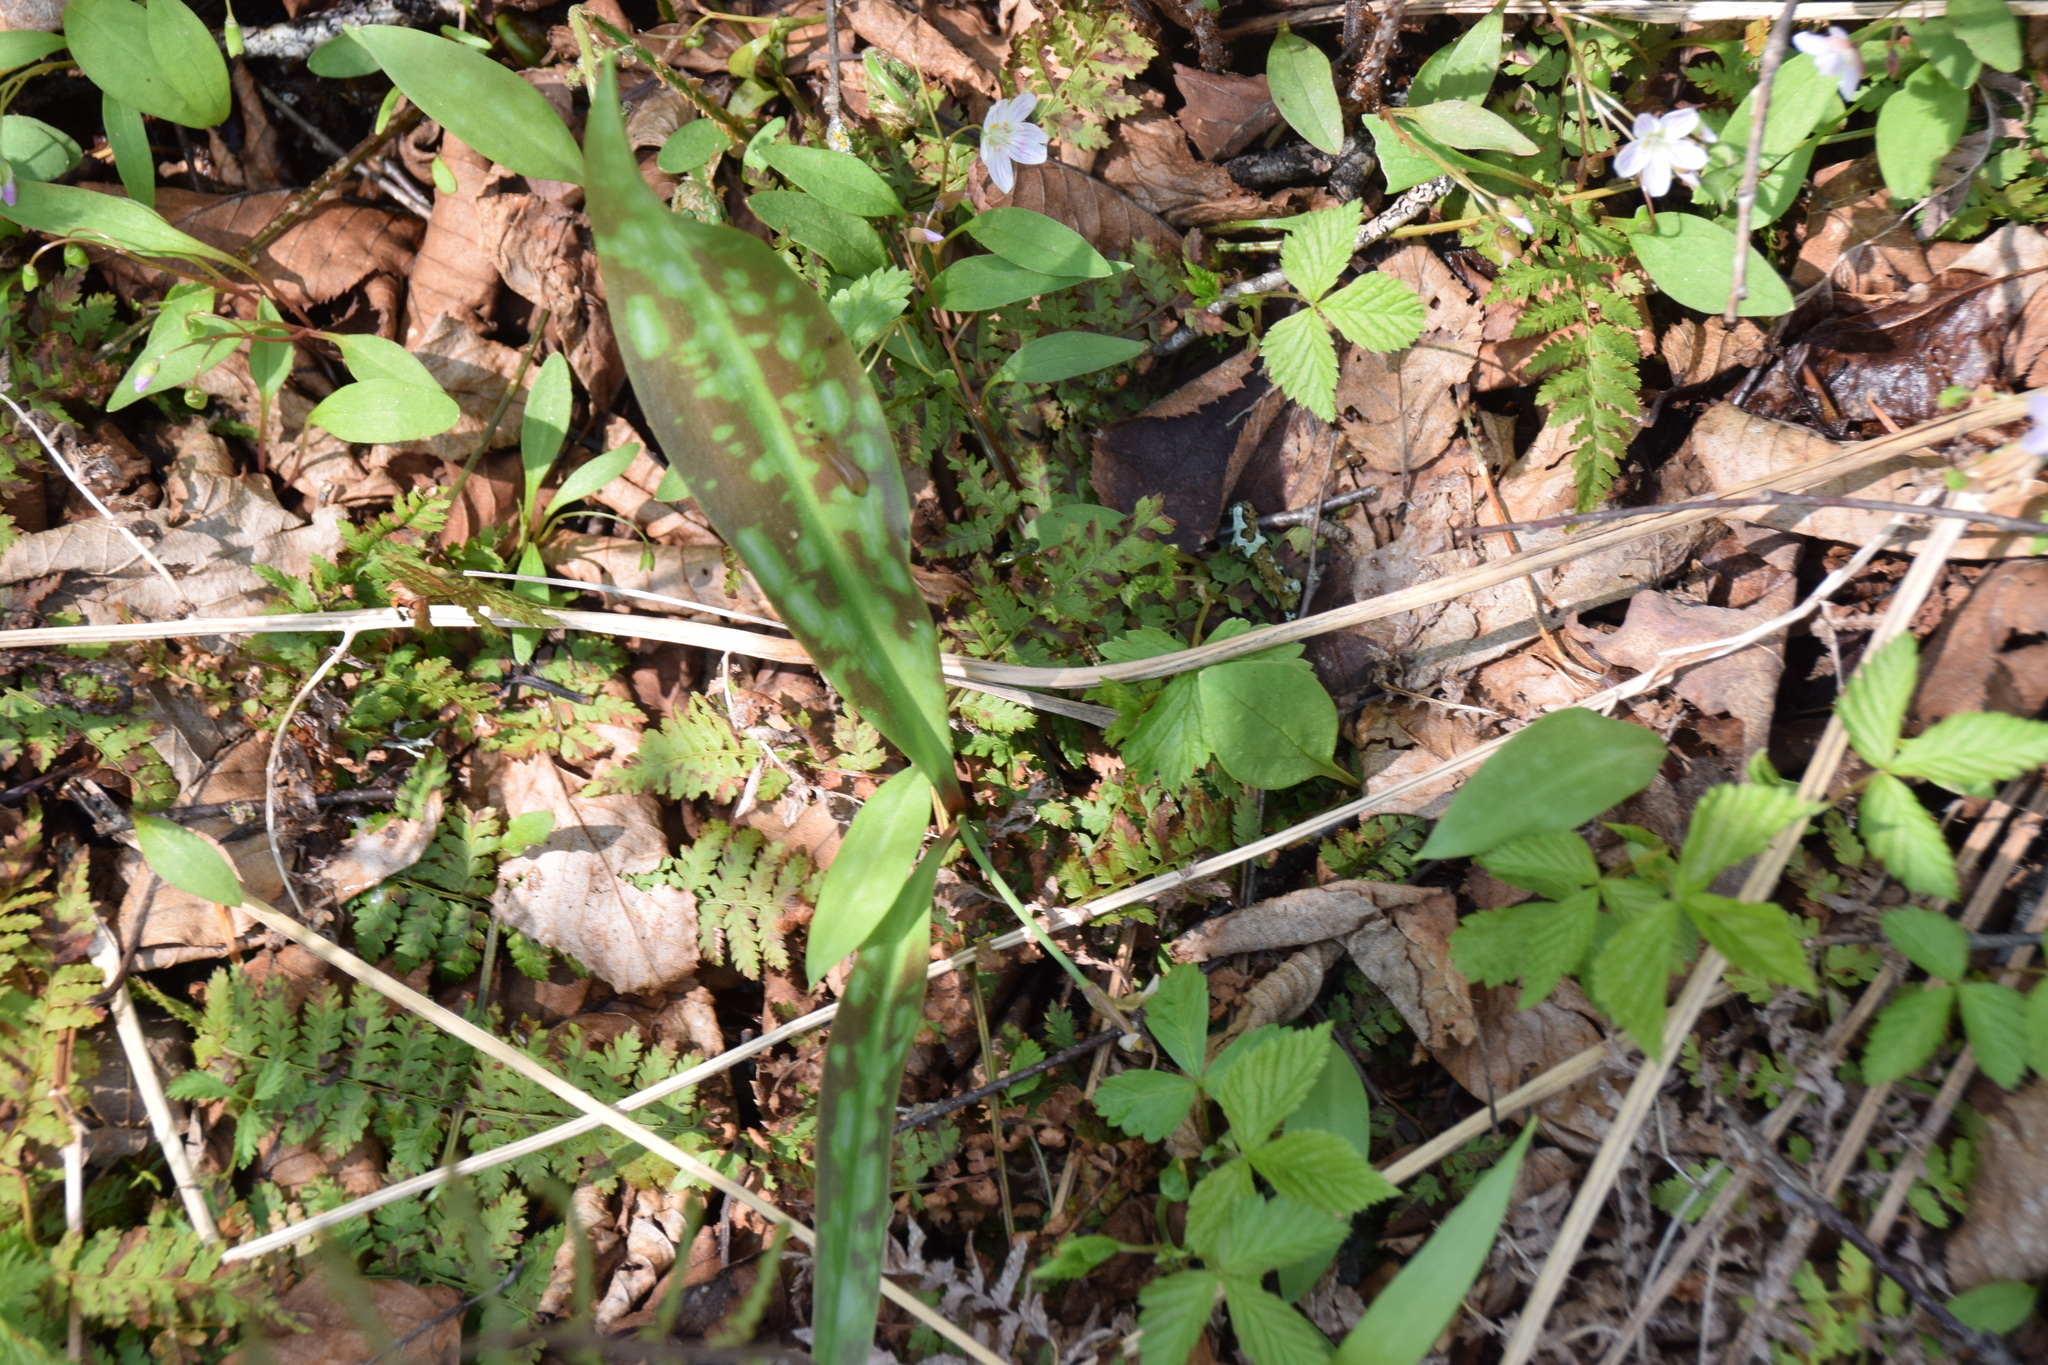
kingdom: Plantae
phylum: Tracheophyta
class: Liliopsida
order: Liliales
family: Liliaceae
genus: Erythronium
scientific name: Erythronium americanum
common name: Yellow adder's-tongue
